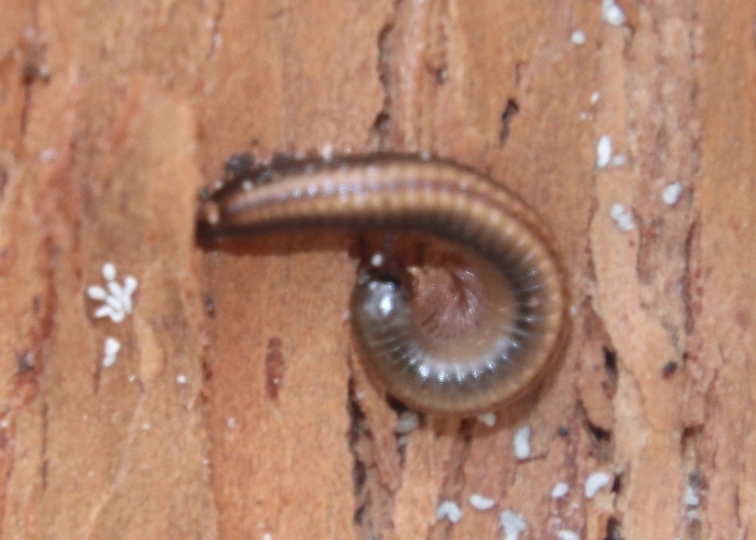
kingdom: Animalia
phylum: Arthropoda
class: Diplopoda
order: Julida
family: Julidae
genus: Ommatoiulus
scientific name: Ommatoiulus moreleti
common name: Portuguese millipede
